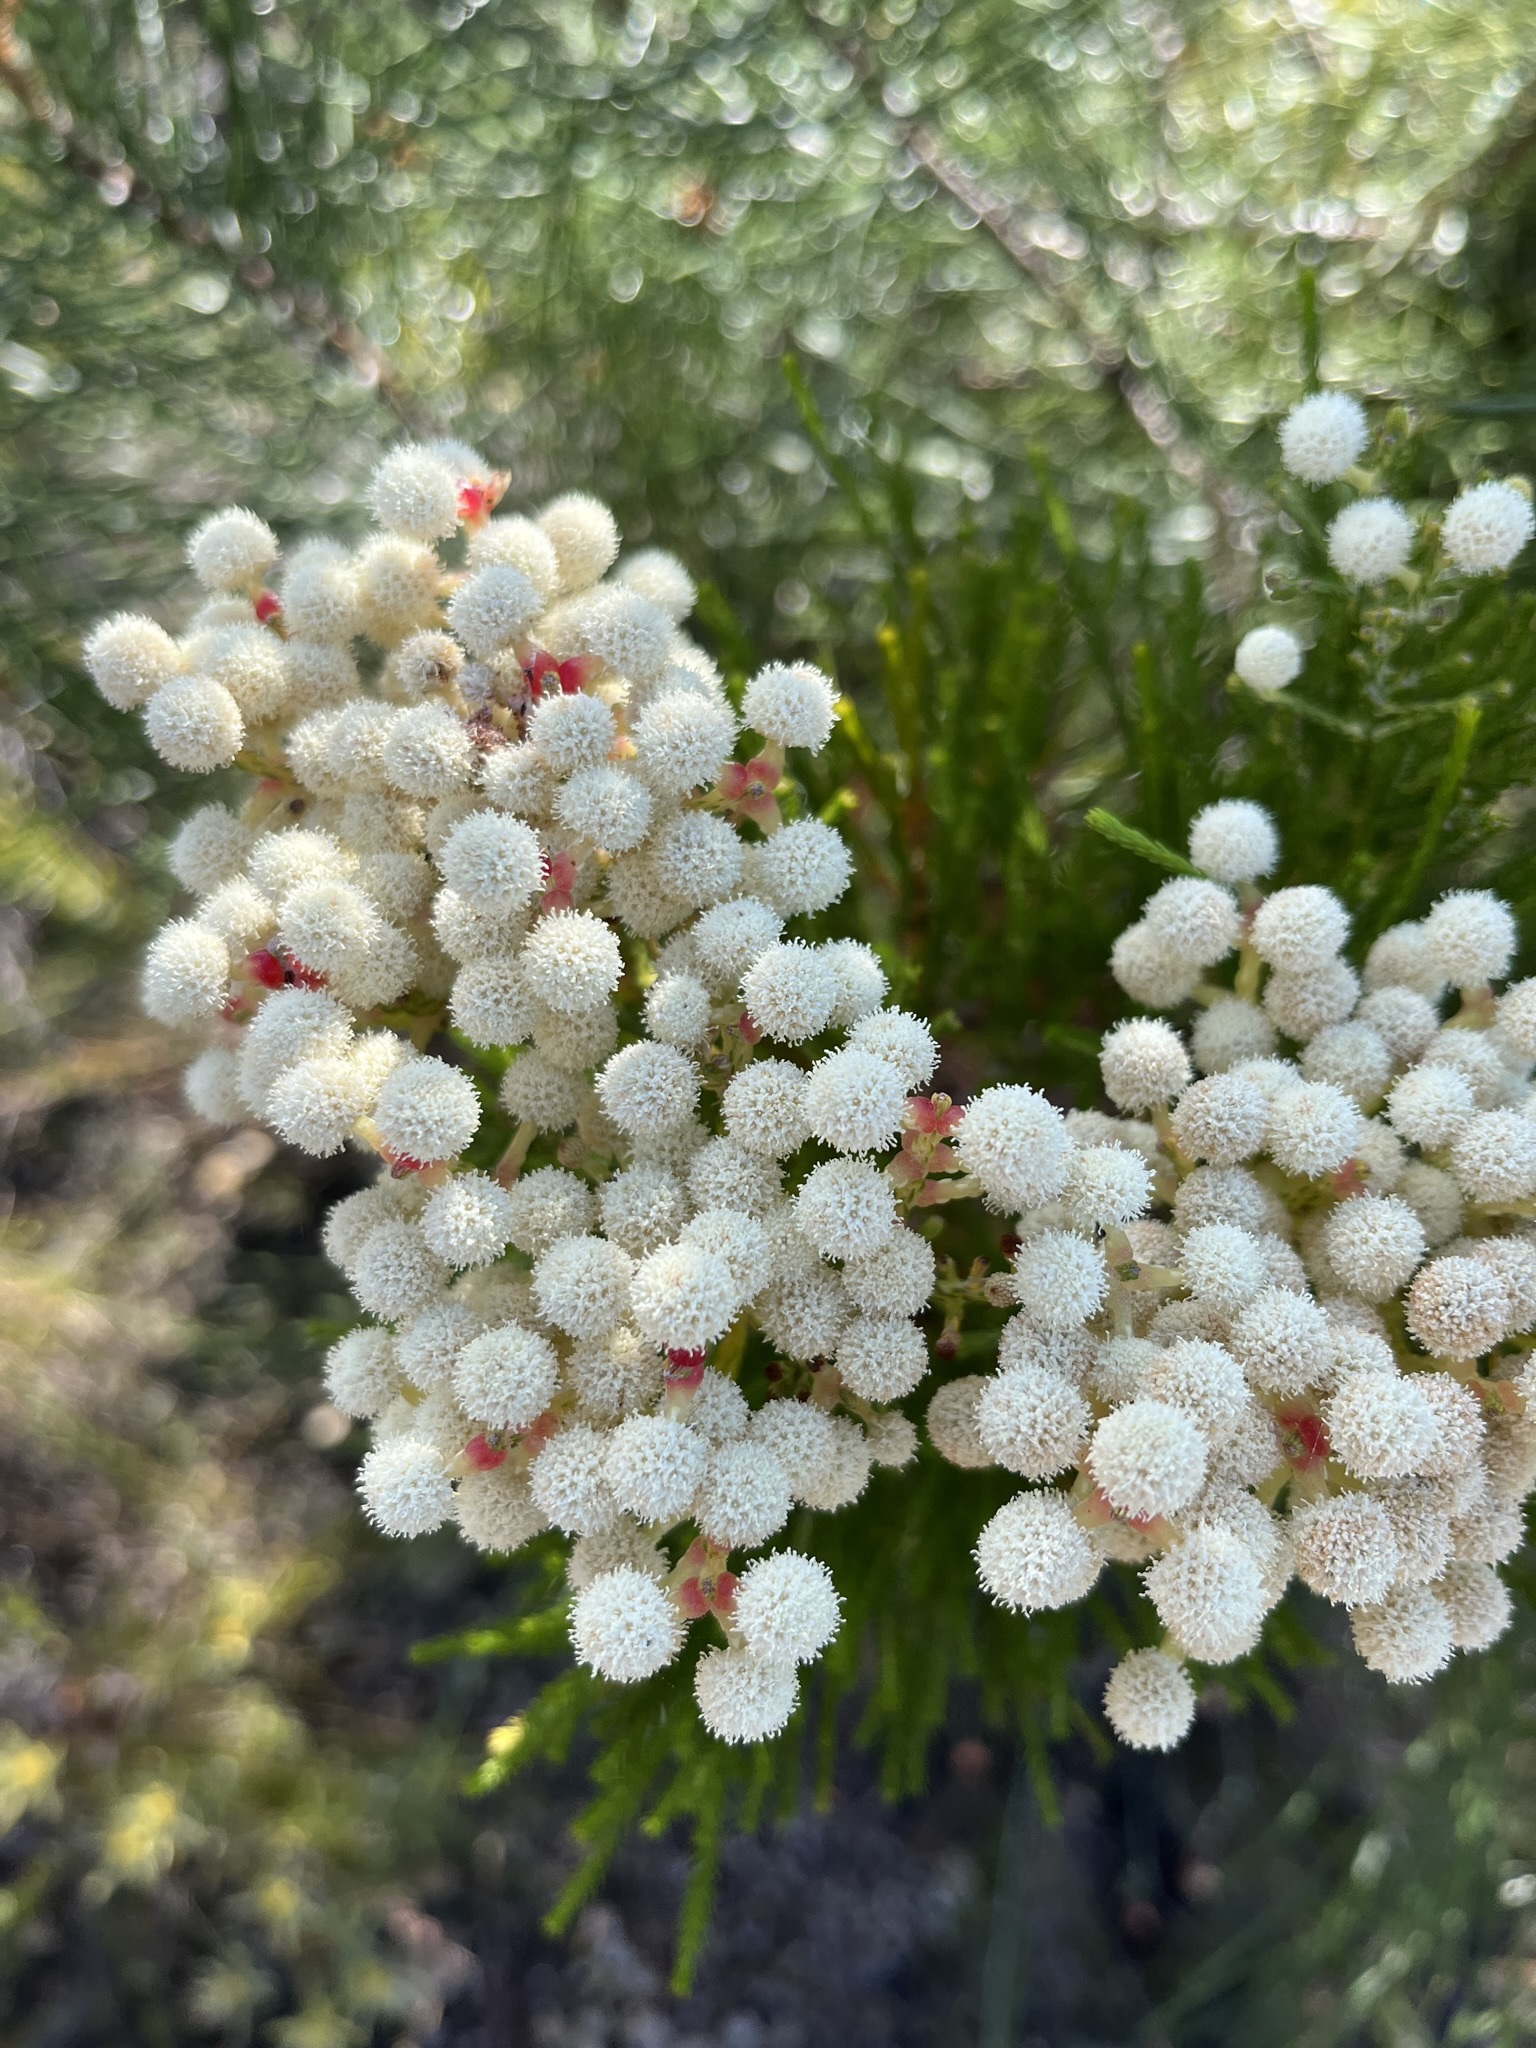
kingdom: Plantae
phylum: Tracheophyta
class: Magnoliopsida
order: Bruniales
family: Bruniaceae
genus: Berzelia
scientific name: Berzelia abrotanoides
